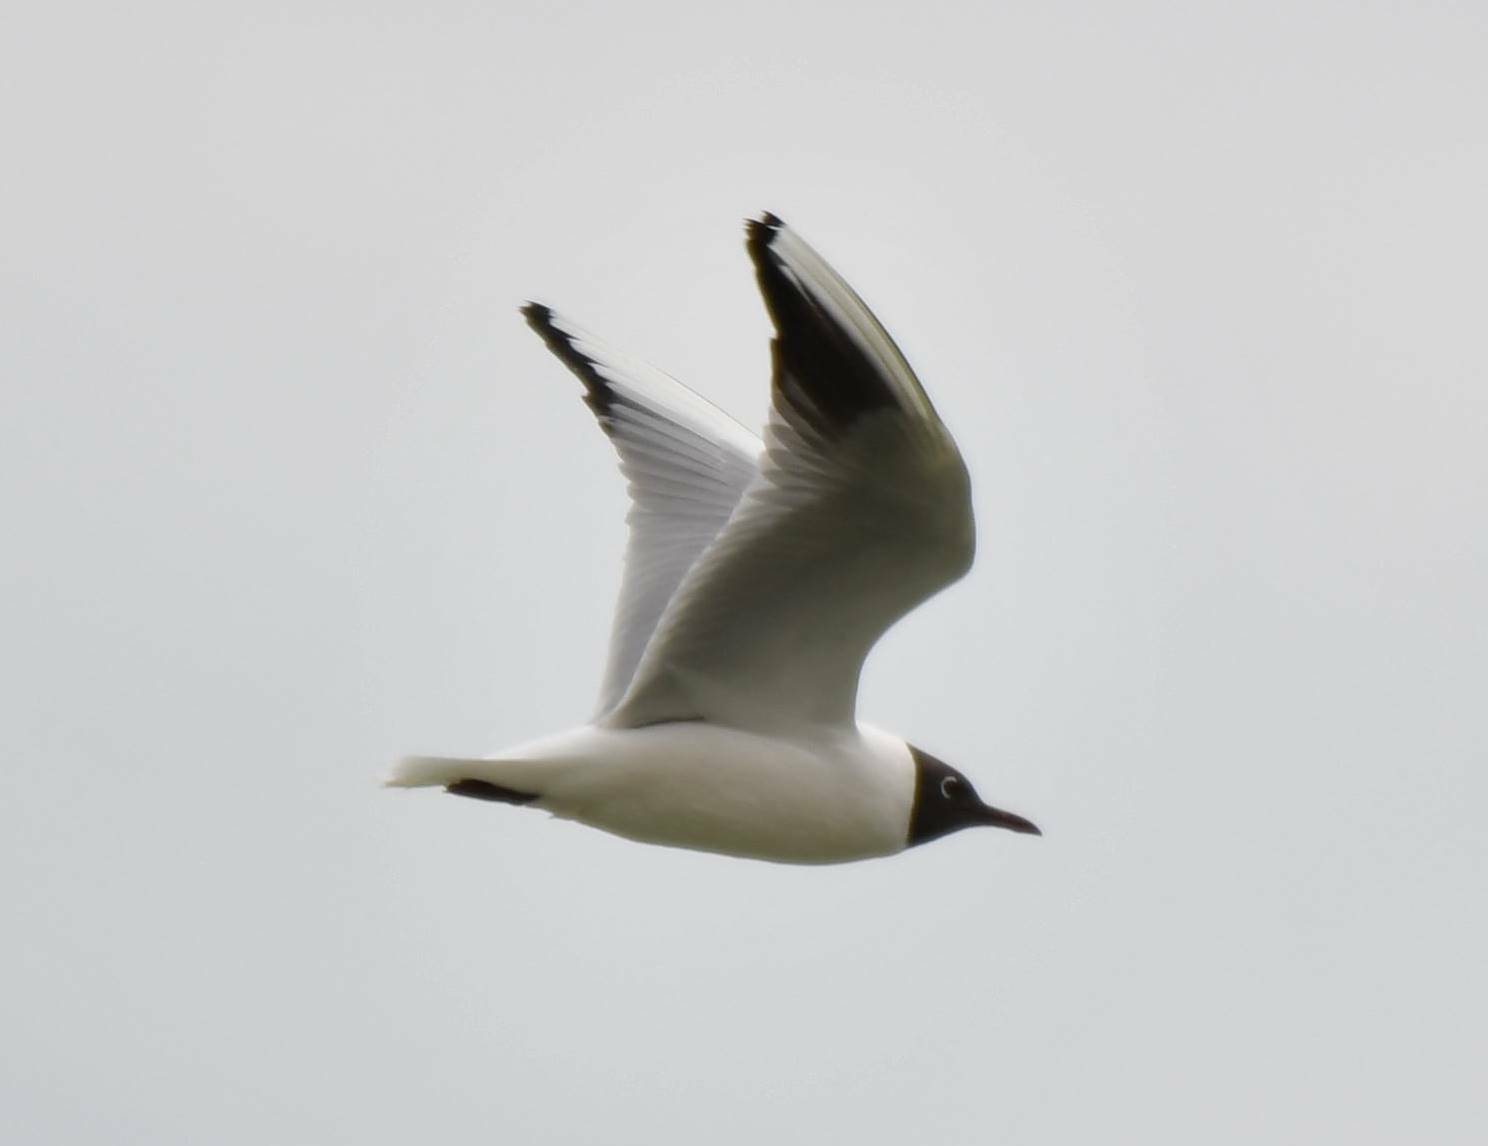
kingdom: Animalia
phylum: Chordata
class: Aves
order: Charadriiformes
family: Laridae
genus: Chroicocephalus
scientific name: Chroicocephalus ridibundus
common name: Black-headed gull
